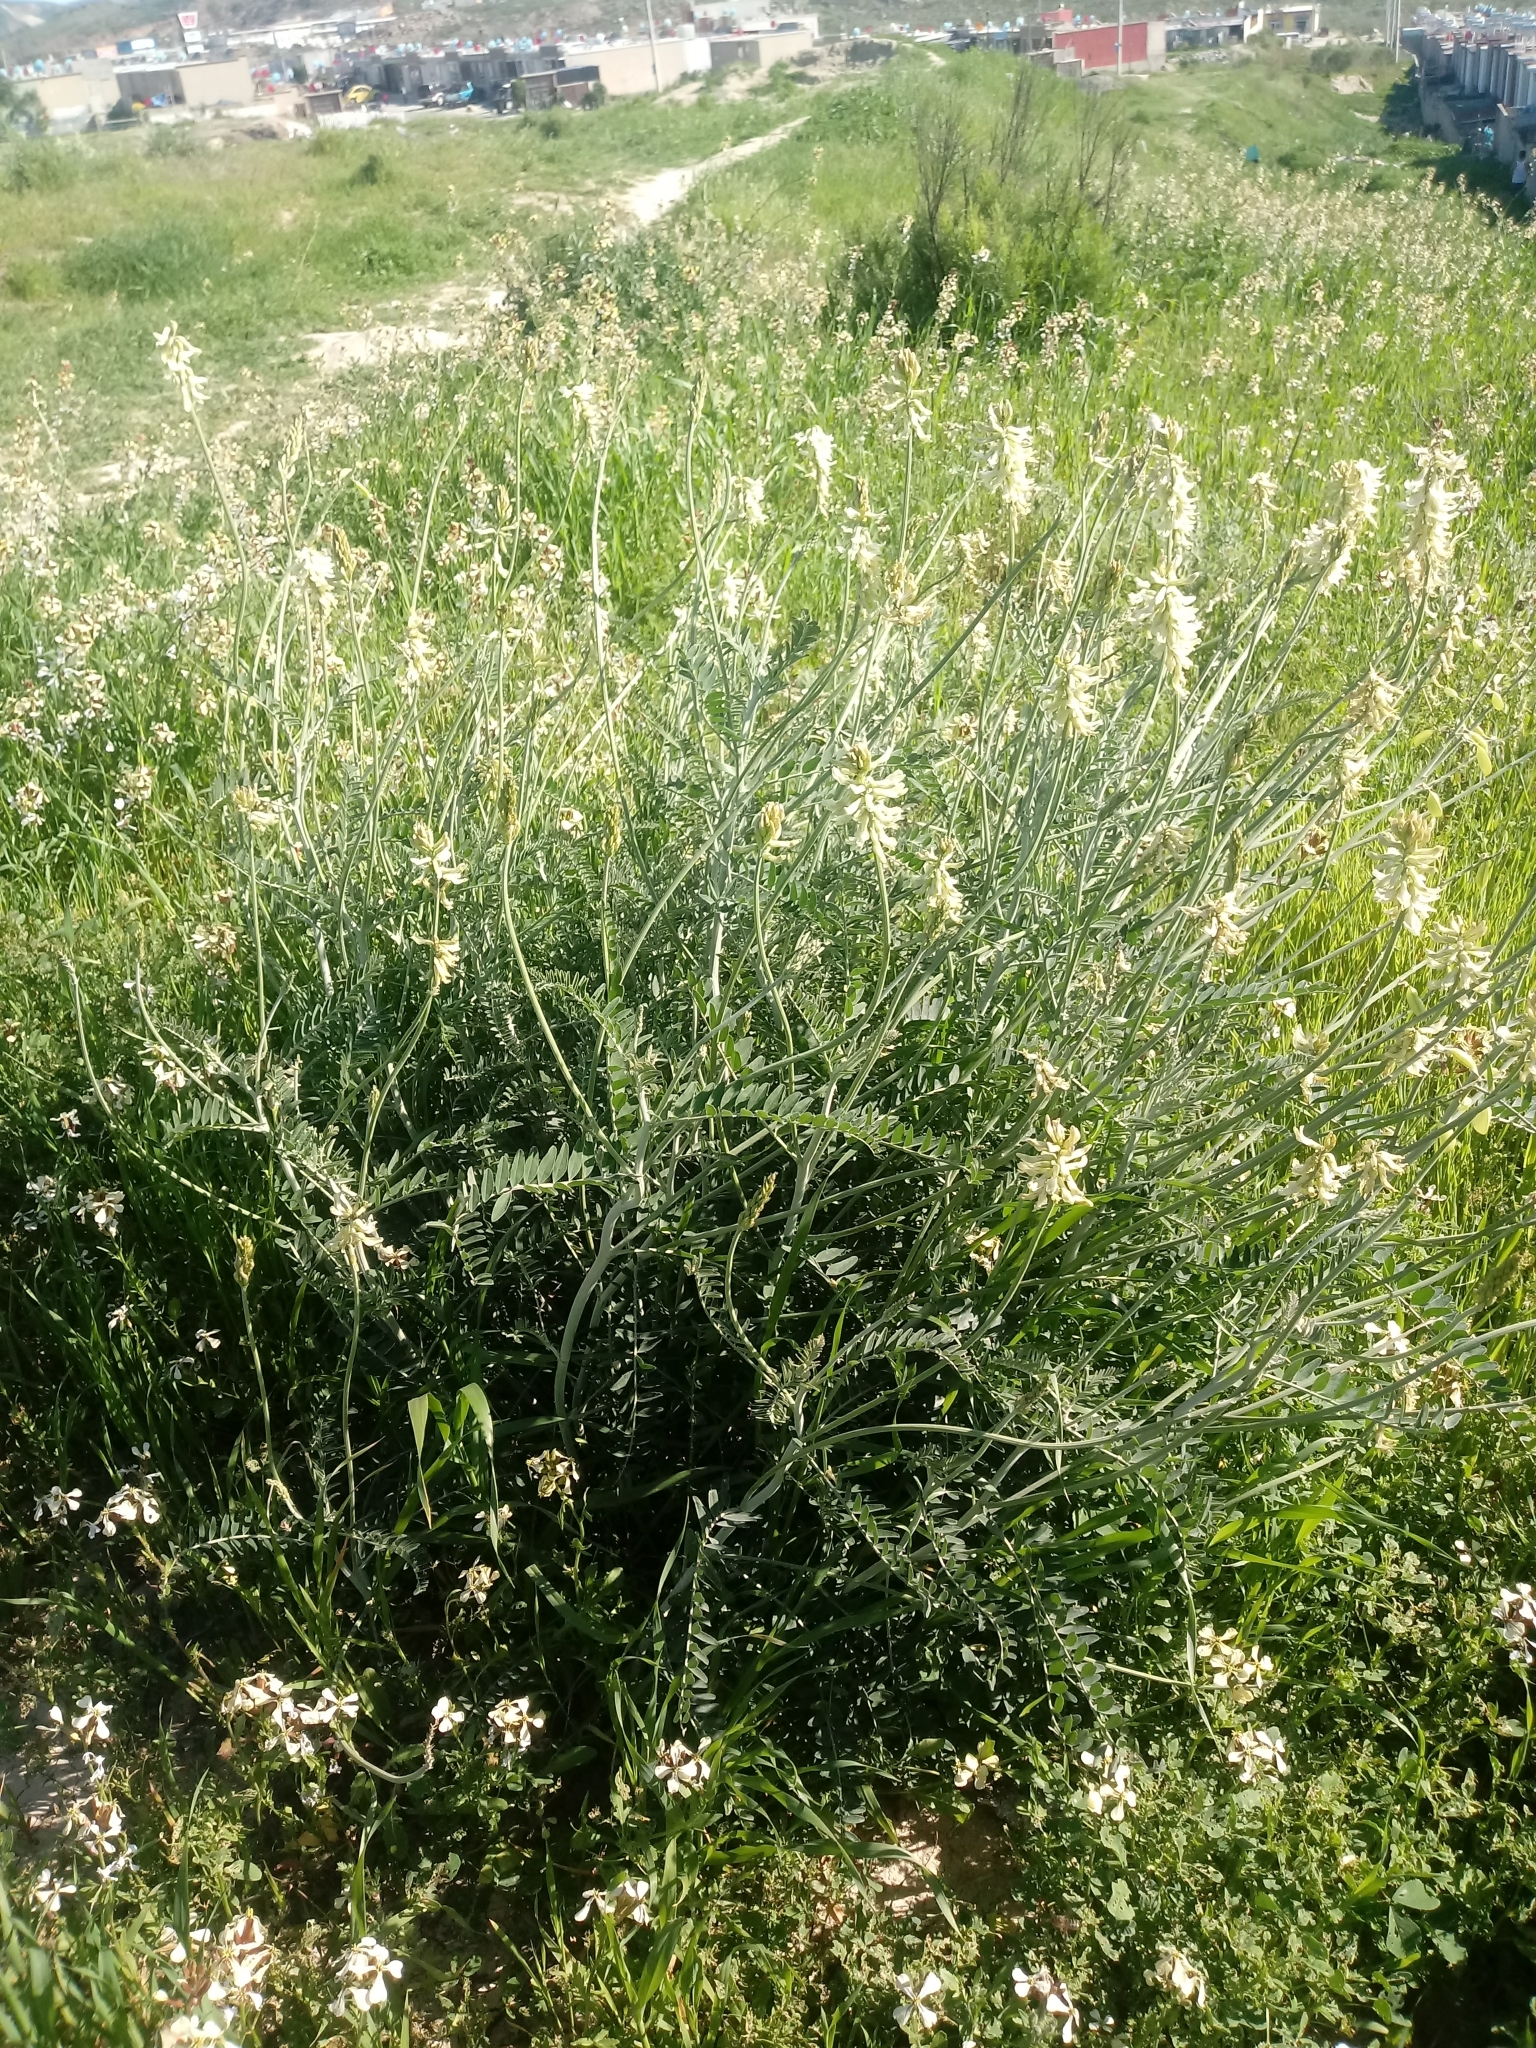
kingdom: Plantae
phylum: Tracheophyta
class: Magnoliopsida
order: Fabales
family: Fabaceae
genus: Astragalus
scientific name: Astragalus trichopodus
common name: Santa barbara milk-vetch
